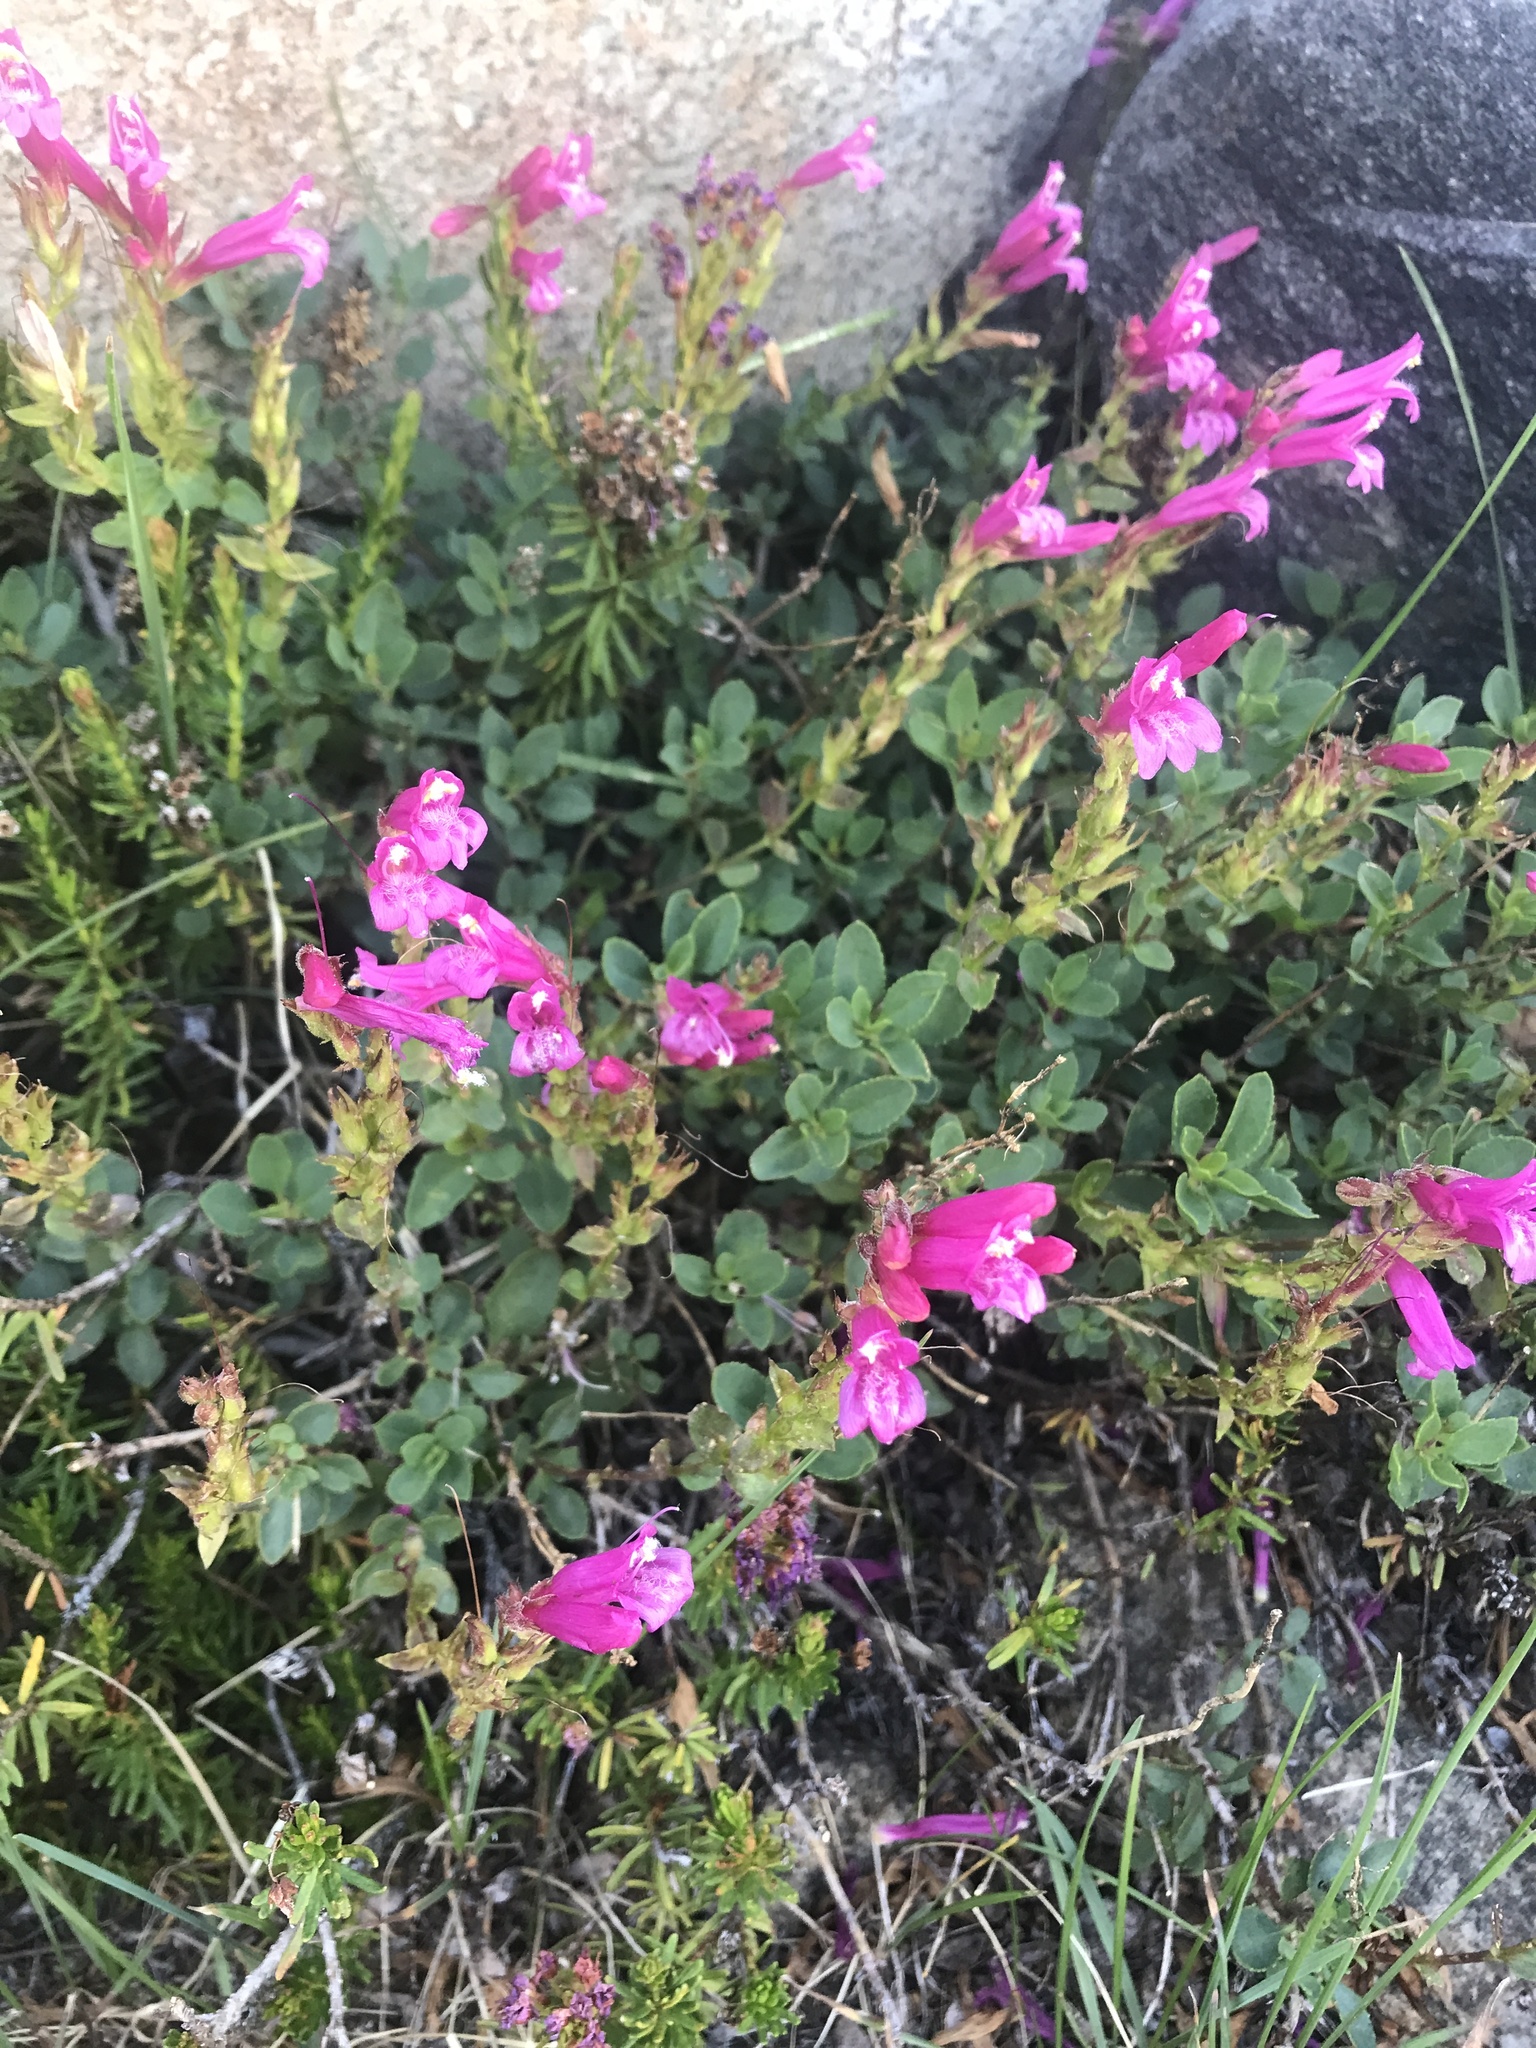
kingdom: Plantae
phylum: Tracheophyta
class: Magnoliopsida
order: Lamiales
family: Plantaginaceae
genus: Penstemon
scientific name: Penstemon newberryi
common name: Mountain-pride
